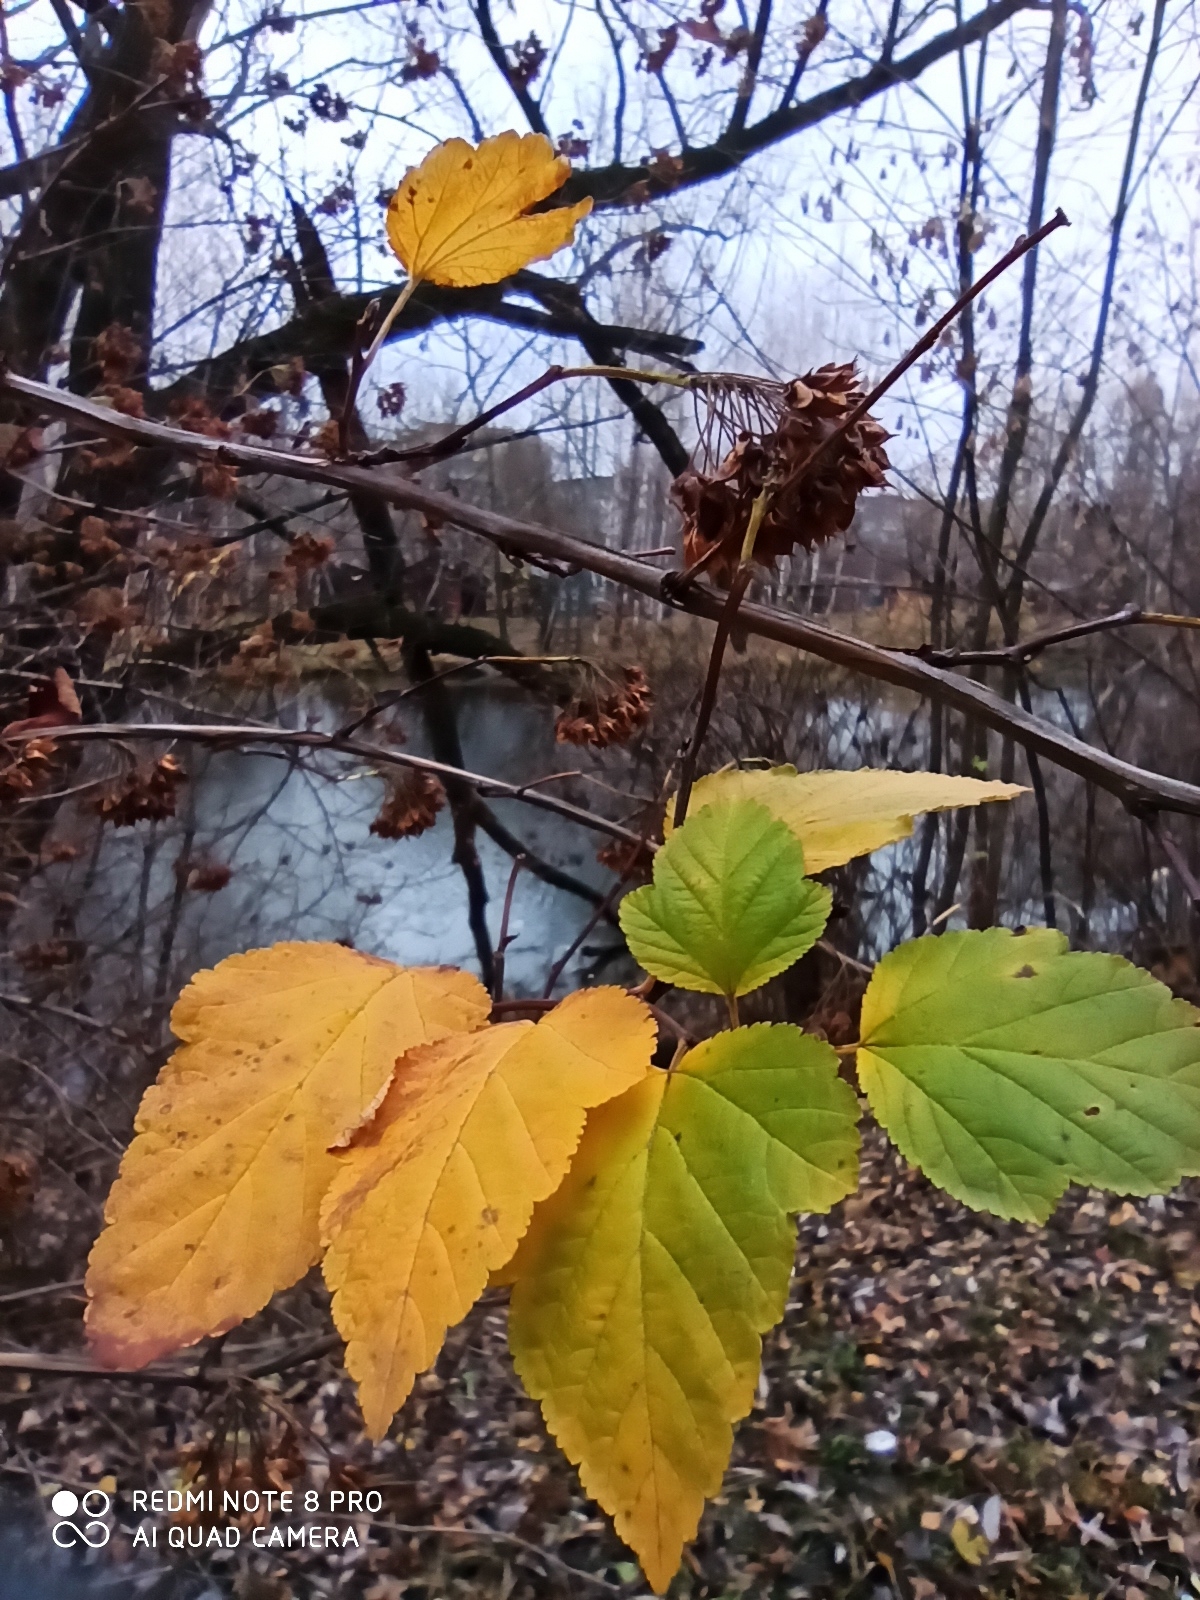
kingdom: Plantae
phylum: Tracheophyta
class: Magnoliopsida
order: Rosales
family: Rosaceae
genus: Physocarpus
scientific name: Physocarpus opulifolius
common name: Ninebark
